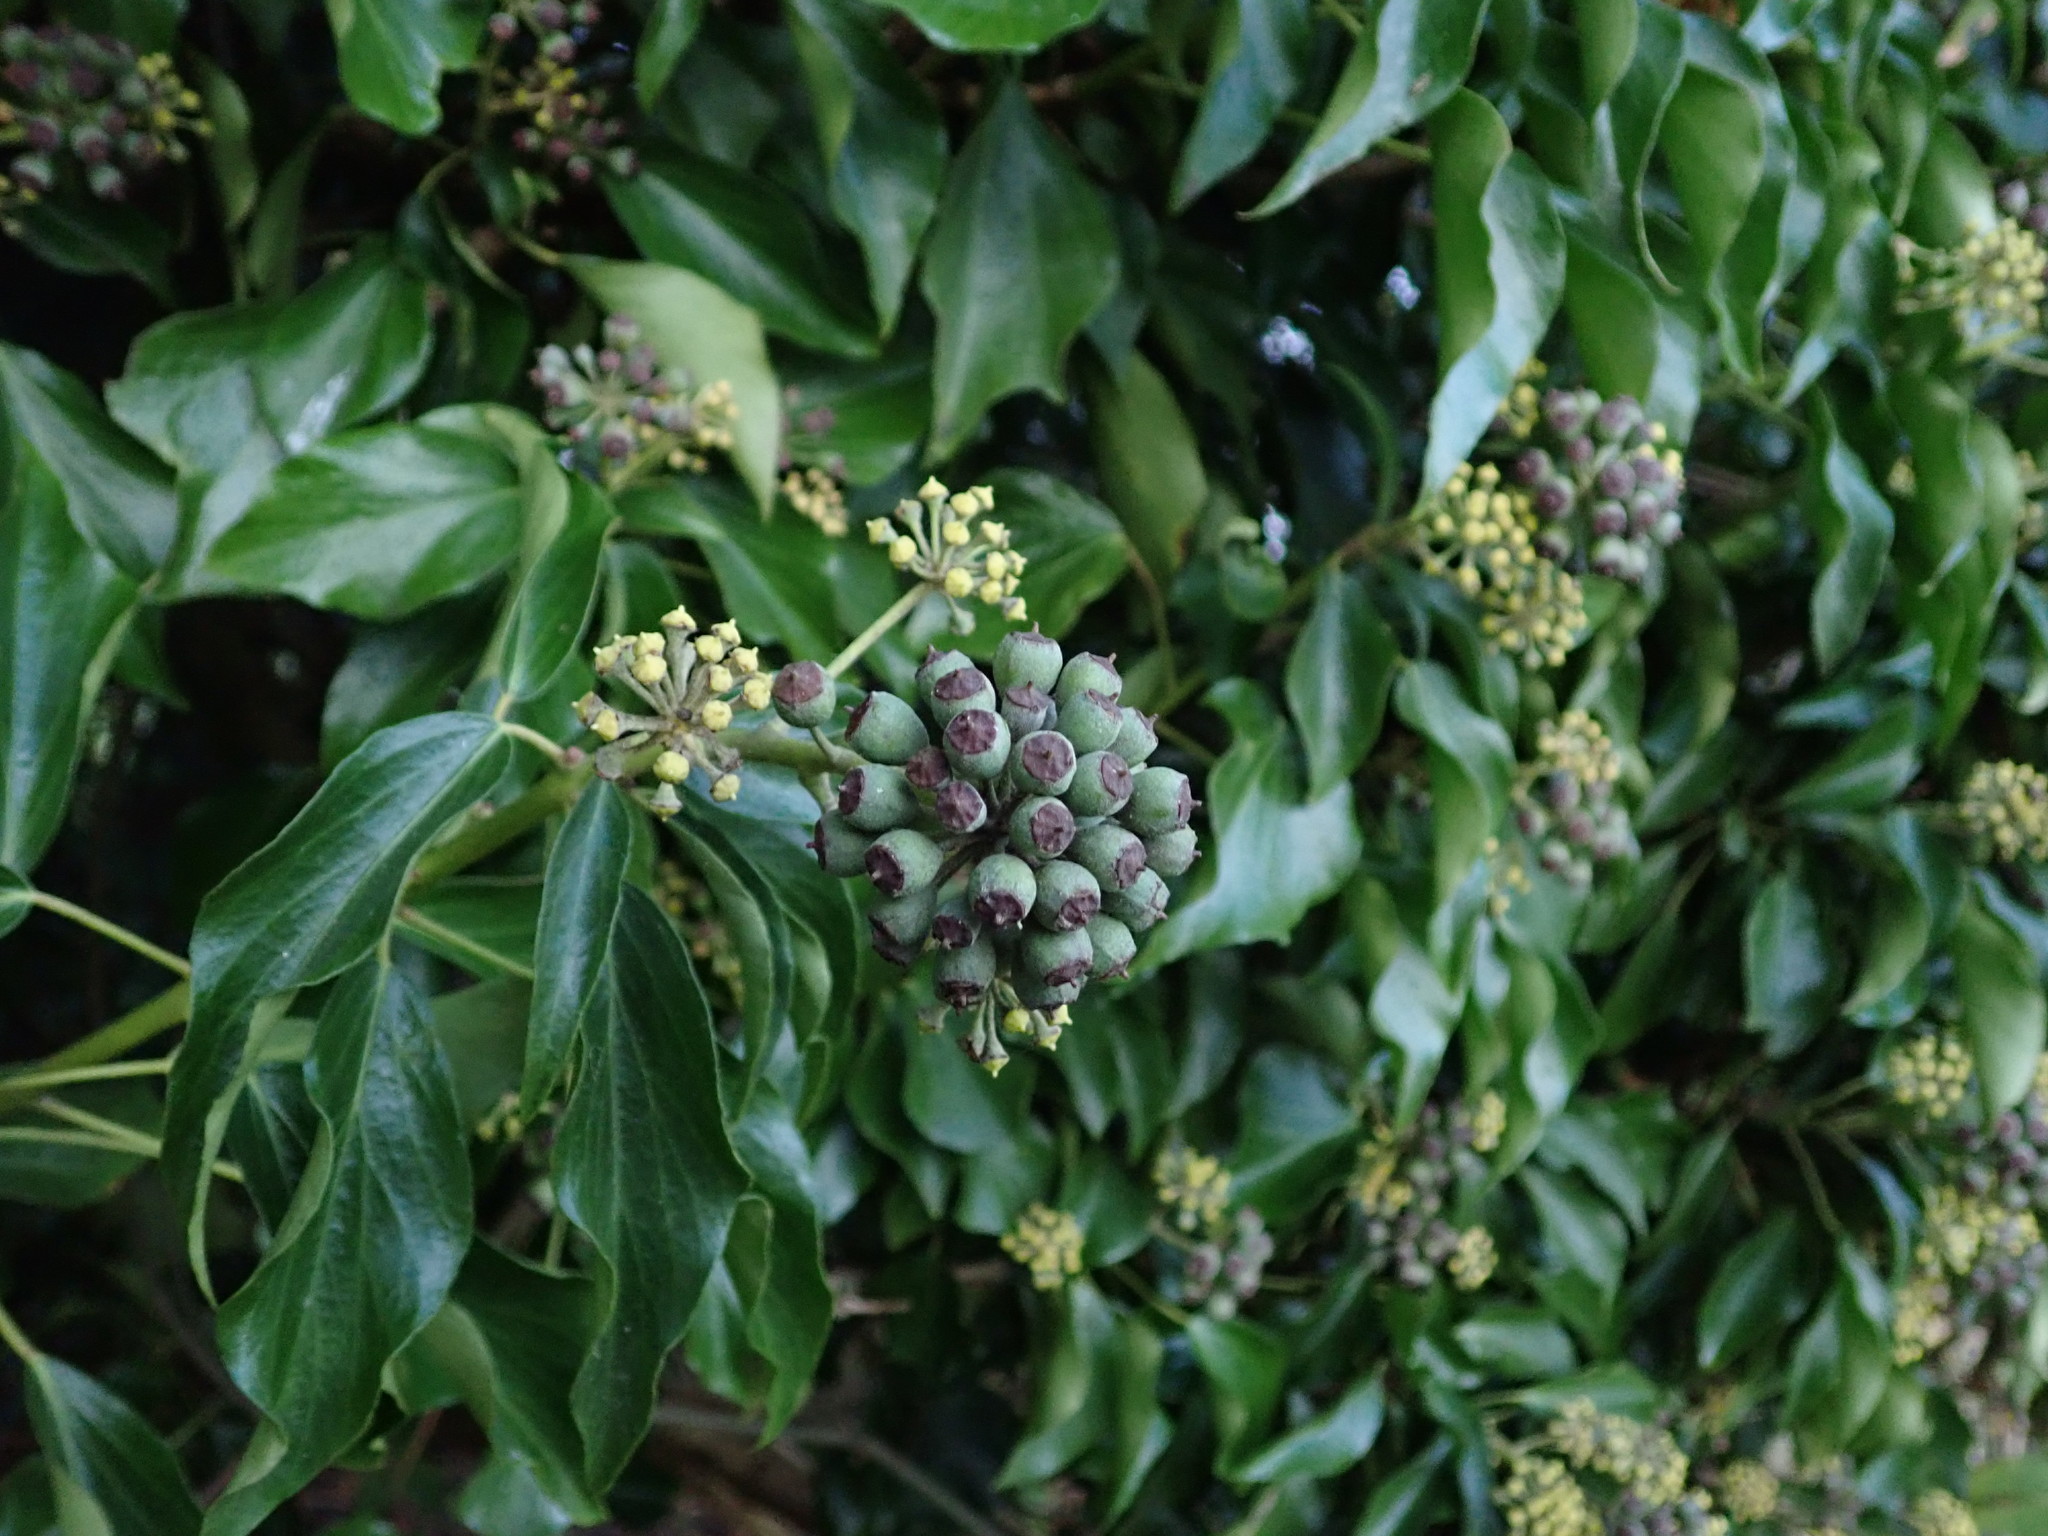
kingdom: Plantae
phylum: Tracheophyta
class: Magnoliopsida
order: Apiales
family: Araliaceae
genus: Hedera
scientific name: Hedera helix
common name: Ivy
